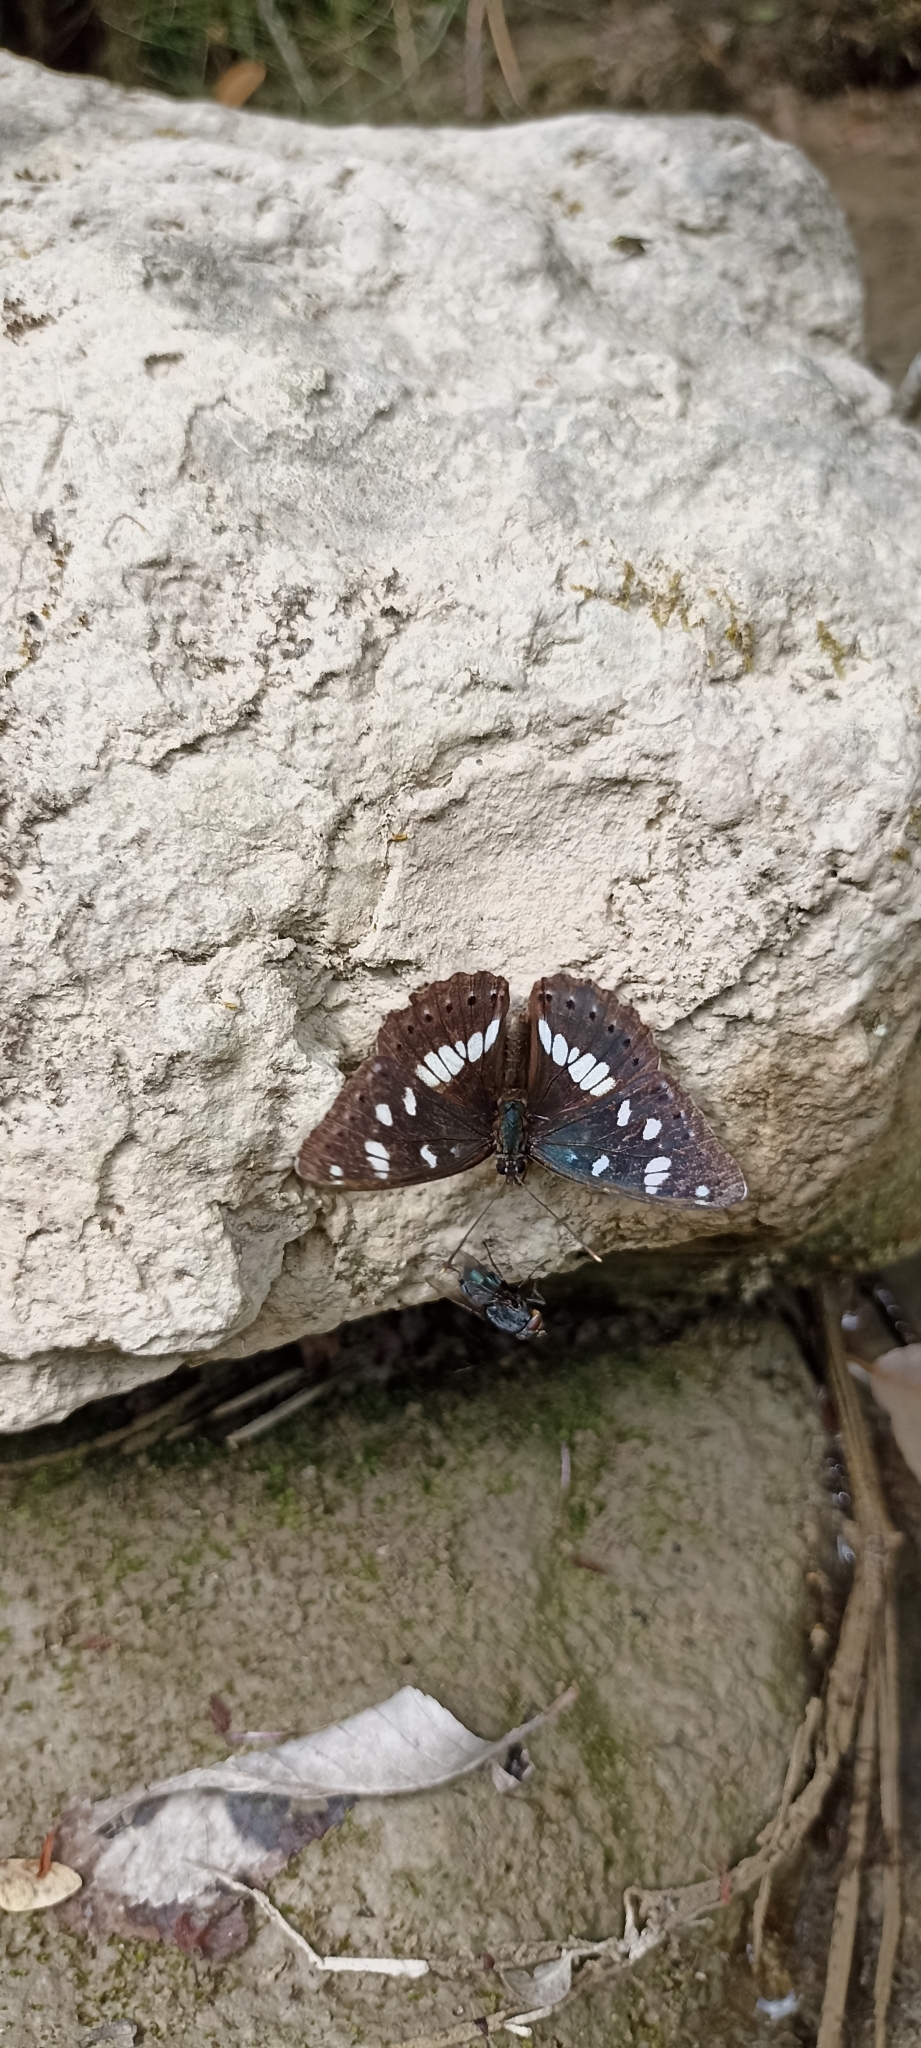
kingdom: Animalia
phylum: Arthropoda
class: Insecta
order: Lepidoptera
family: Nymphalidae
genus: Limenitis
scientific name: Limenitis reducta
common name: Southern white admiral
